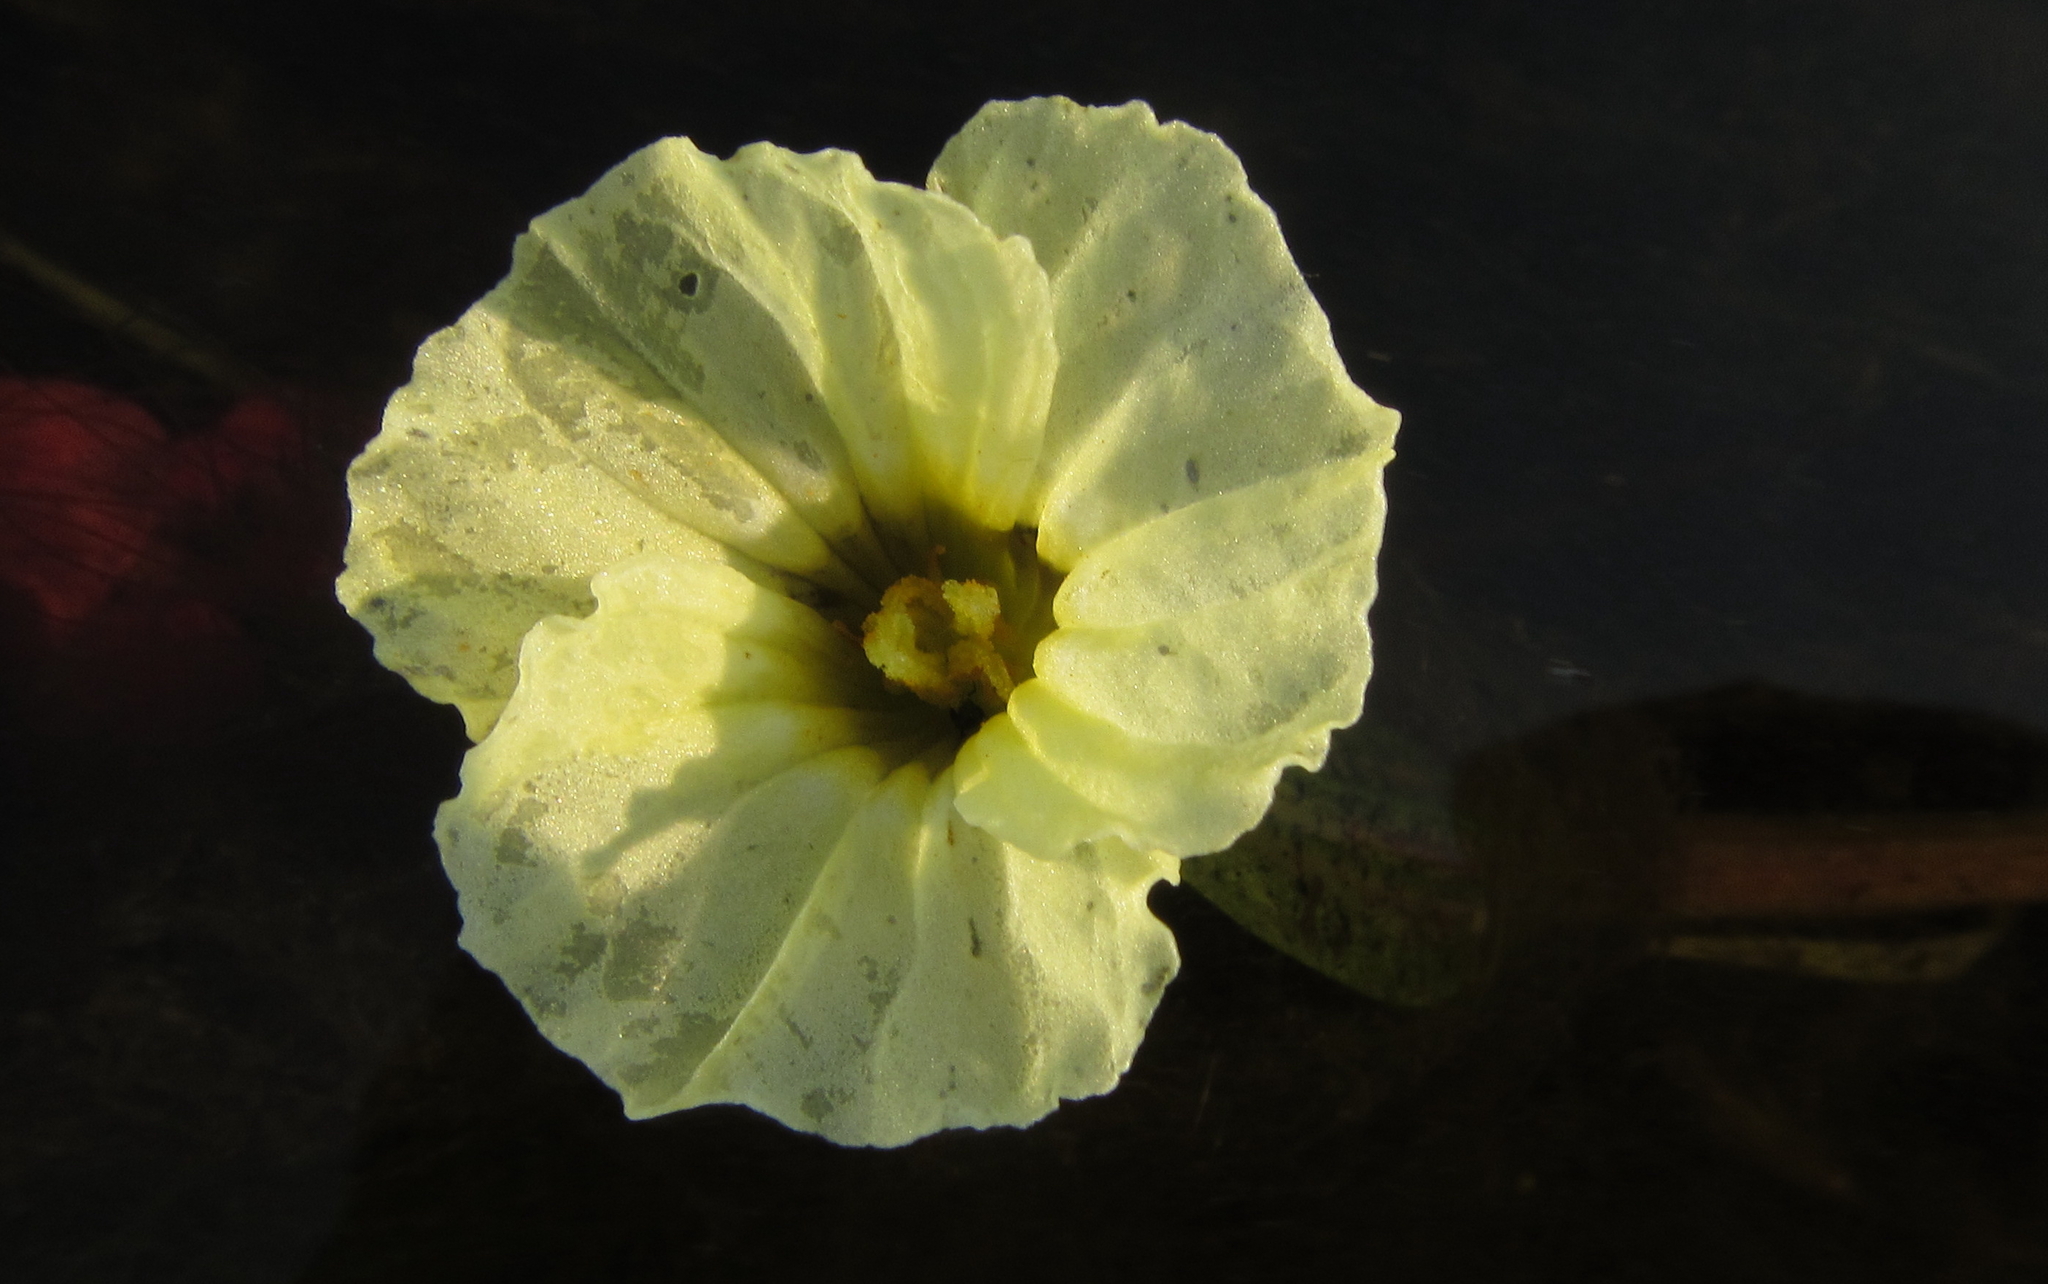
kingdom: Plantae
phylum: Tracheophyta
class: Liliopsida
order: Alismatales
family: Hydrocharitaceae
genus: Ottelia
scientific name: Ottelia ulvifolia
